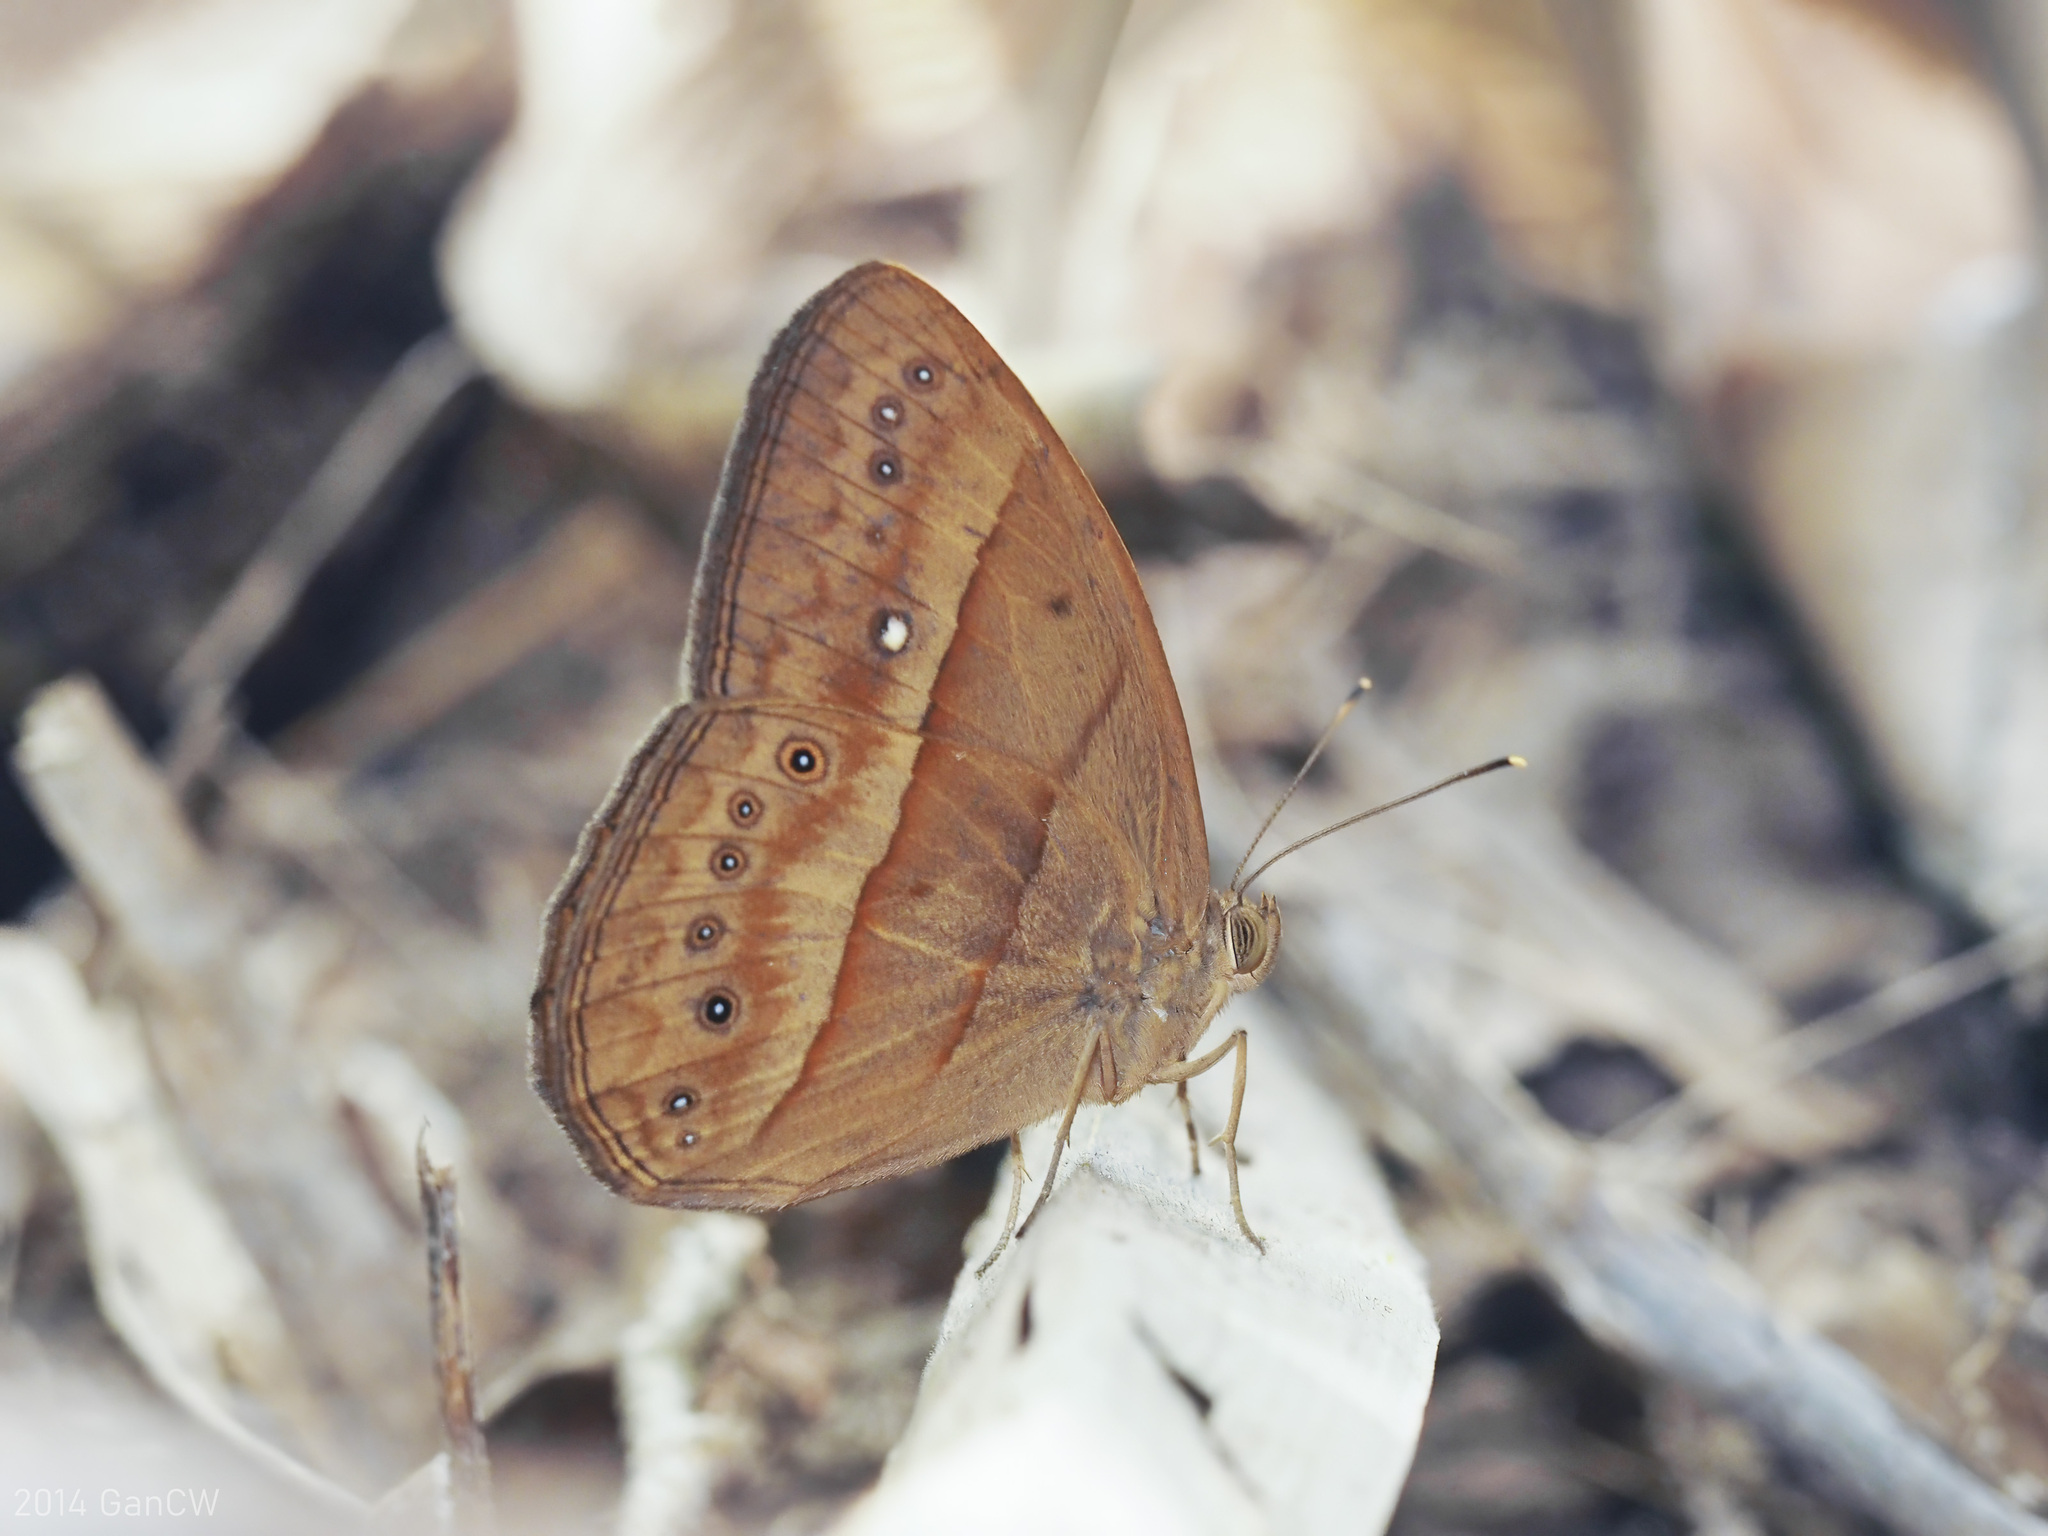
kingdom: Animalia
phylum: Arthropoda
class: Insecta
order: Lepidoptera
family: Nymphalidae
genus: Mycalesis
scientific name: Mycalesis mnasicles
